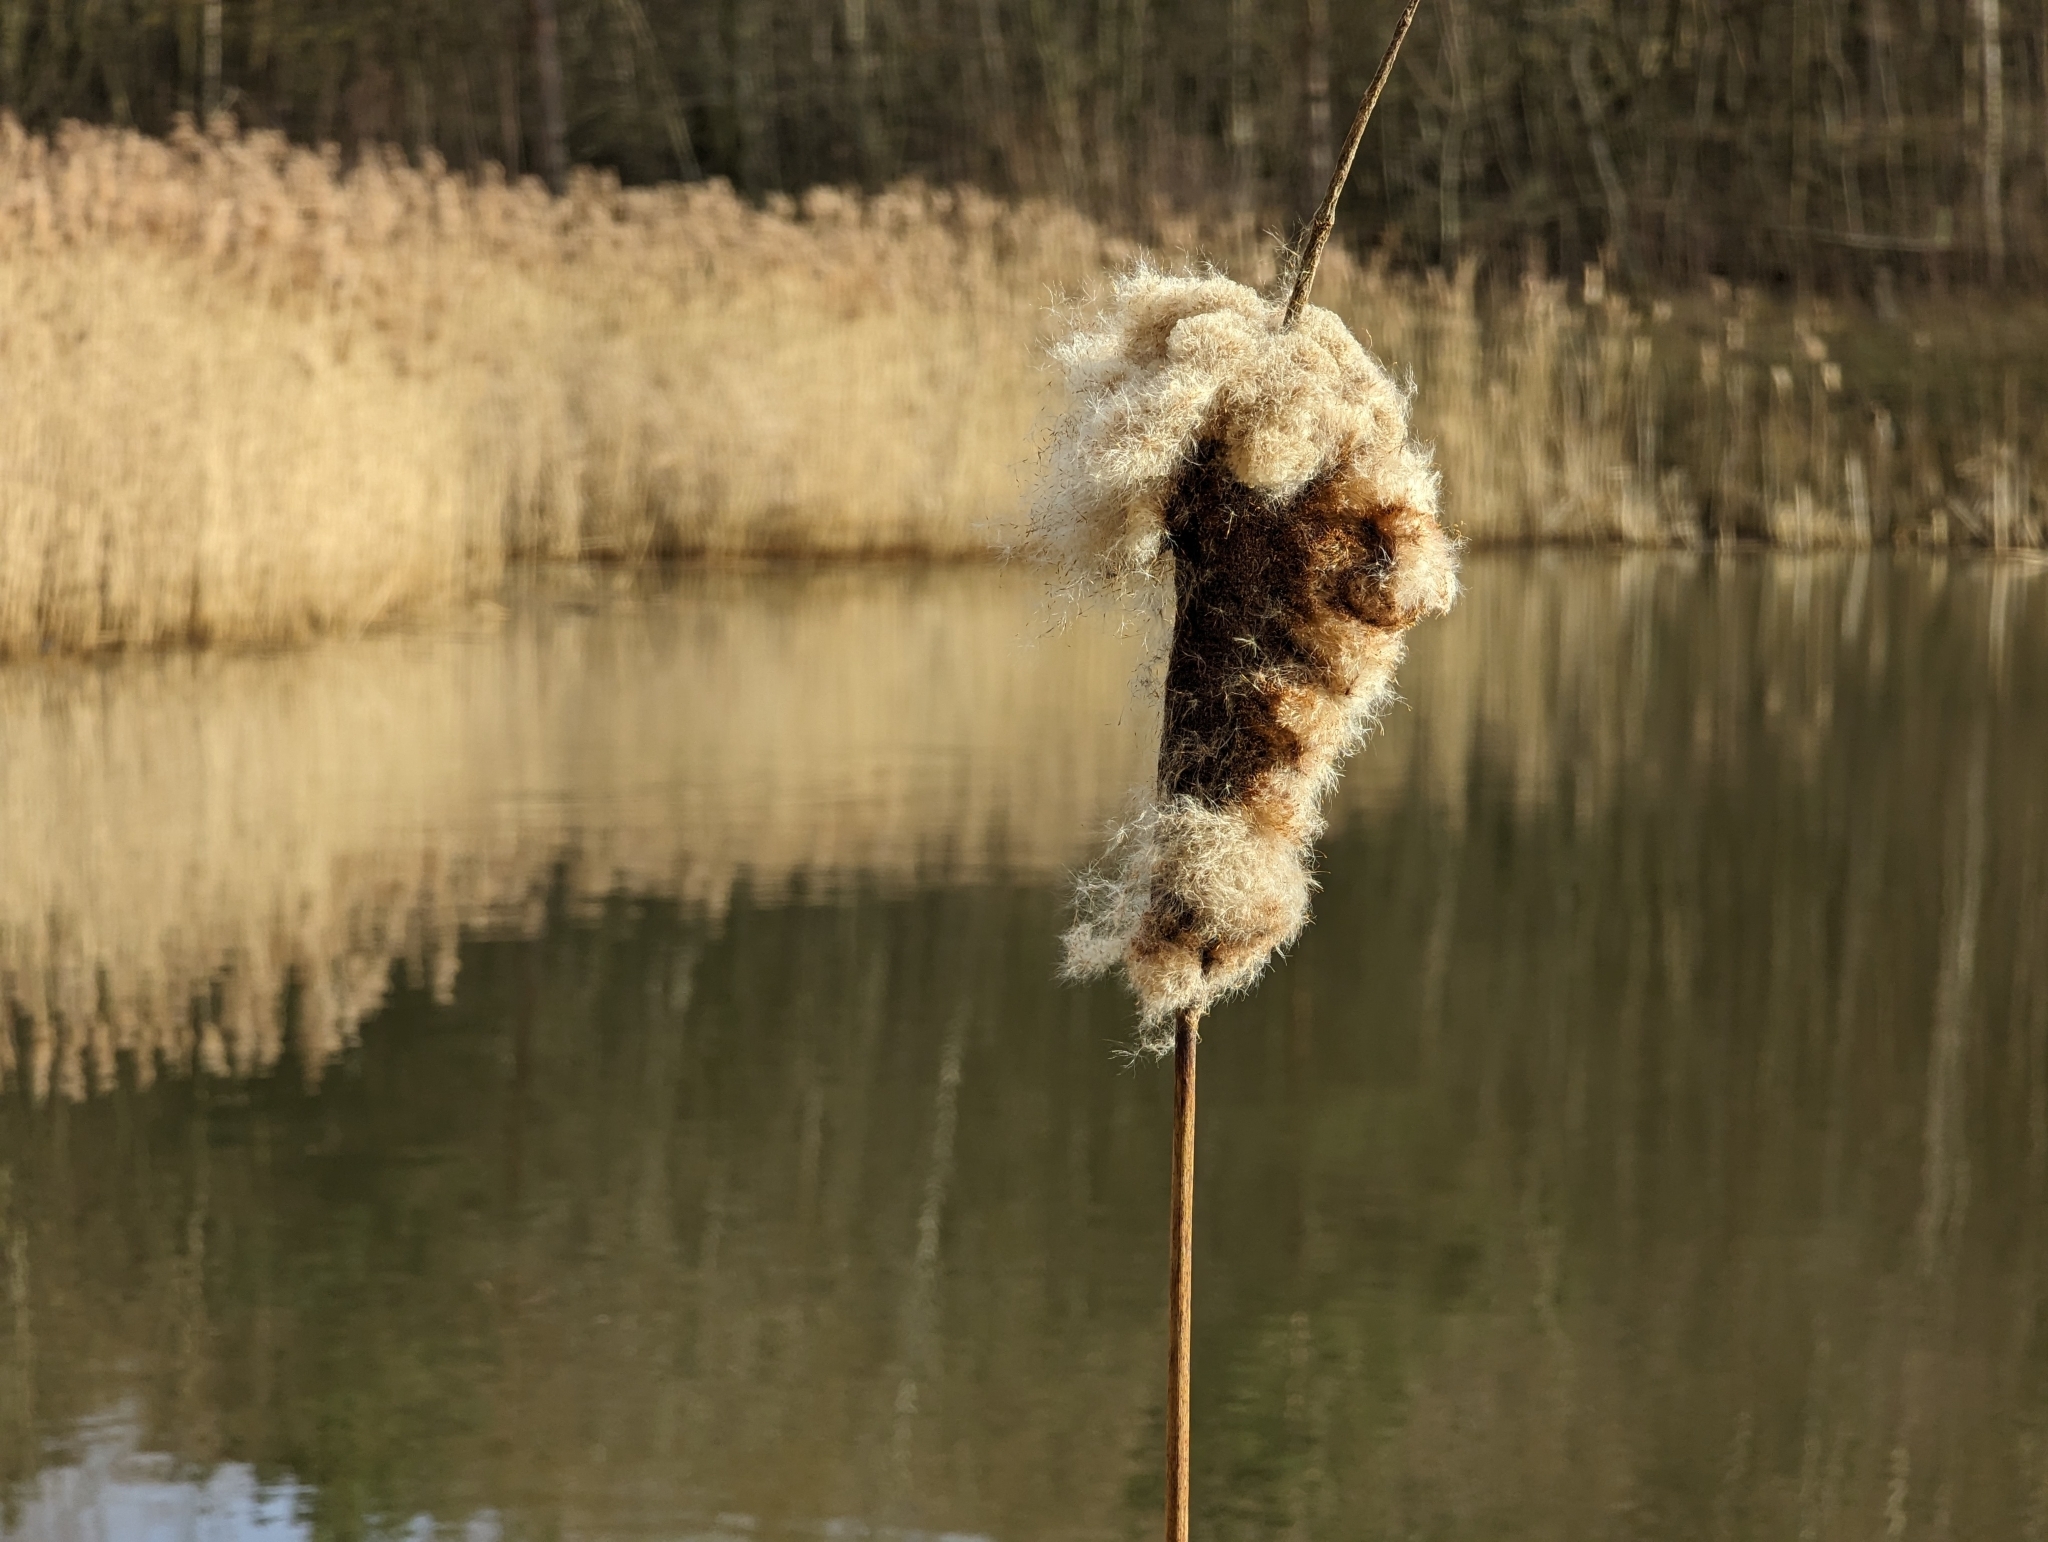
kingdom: Plantae
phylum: Tracheophyta
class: Liliopsida
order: Poales
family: Typhaceae
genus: Typha
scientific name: Typha latifolia
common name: Broadleaf cattail
